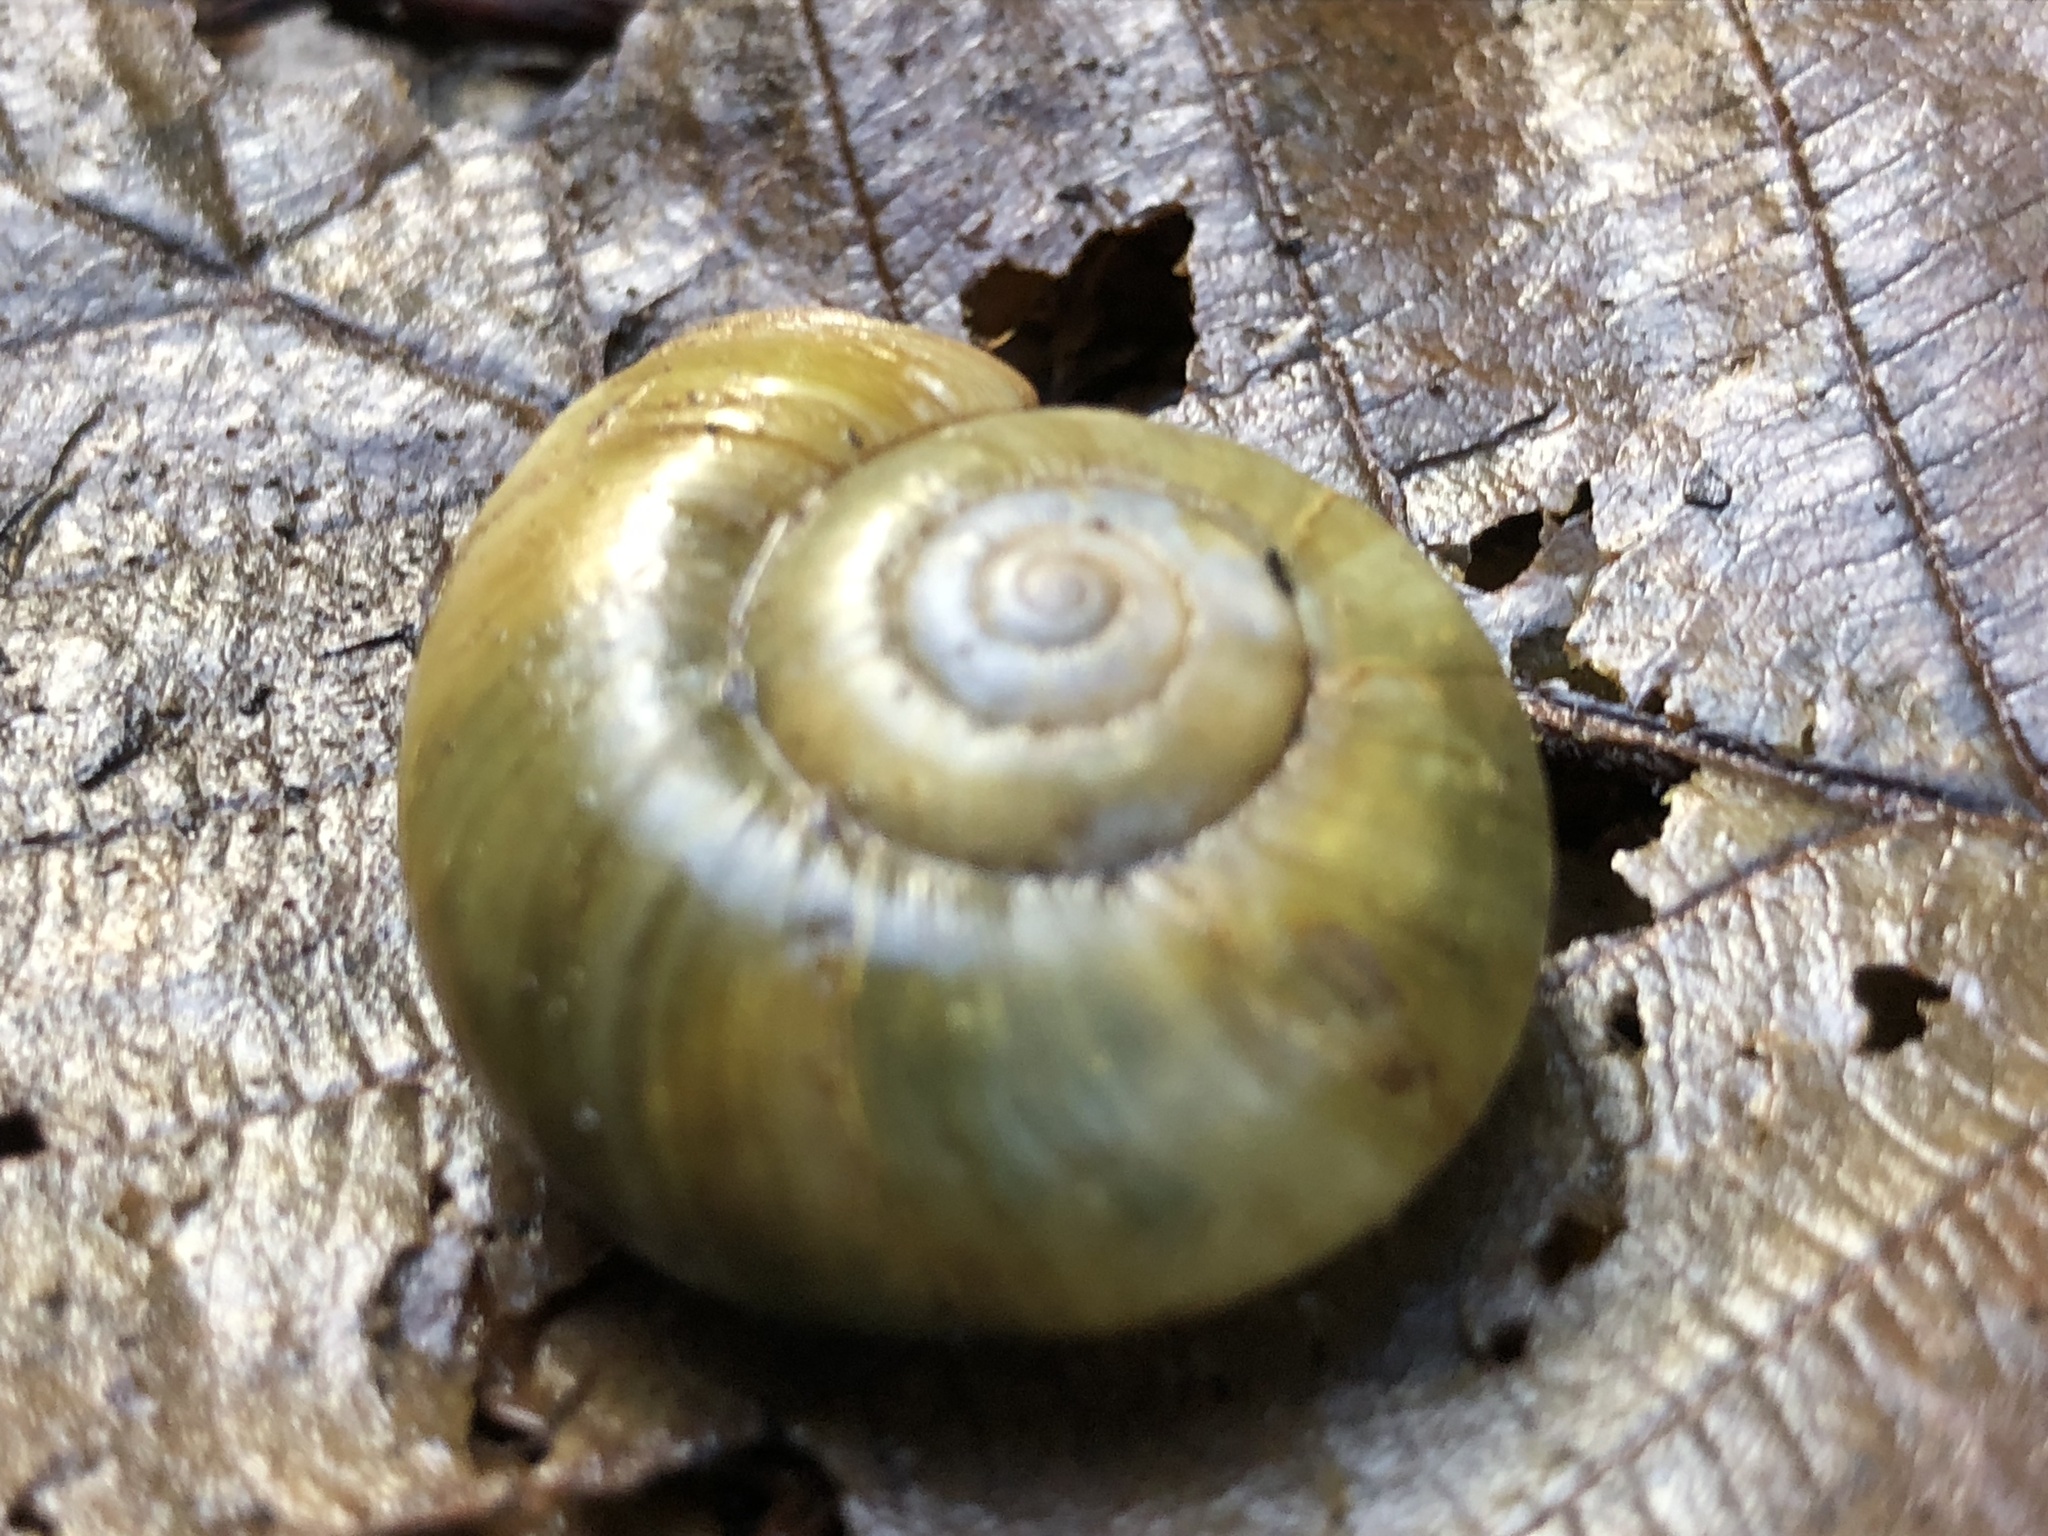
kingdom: Animalia
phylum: Mollusca
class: Gastropoda
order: Stylommatophora
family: Haplotrematidae
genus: Haplotrema
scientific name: Haplotrema vancouverense
